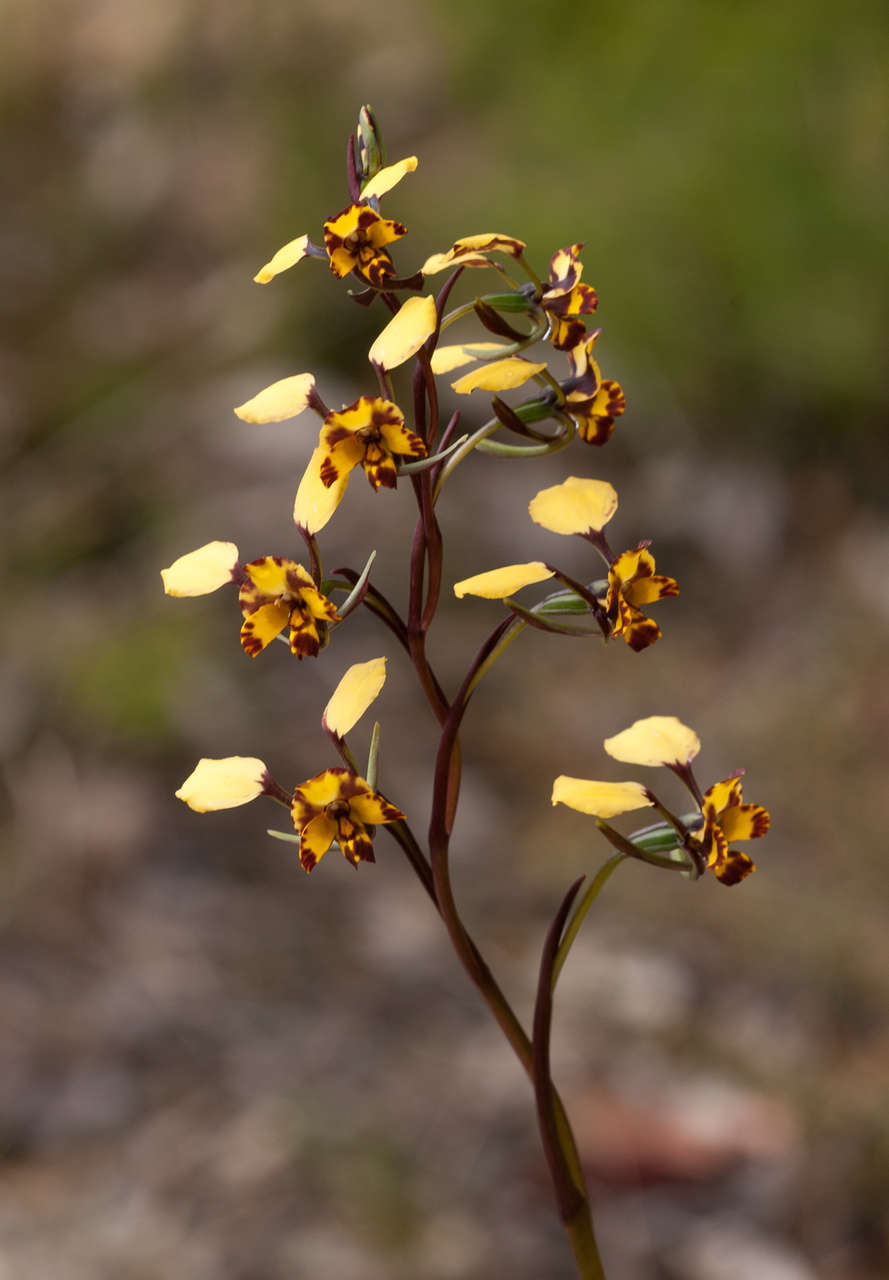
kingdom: Plantae
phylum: Tracheophyta
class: Liliopsida
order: Asparagales
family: Orchidaceae
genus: Diuris
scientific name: Diuris pardina
